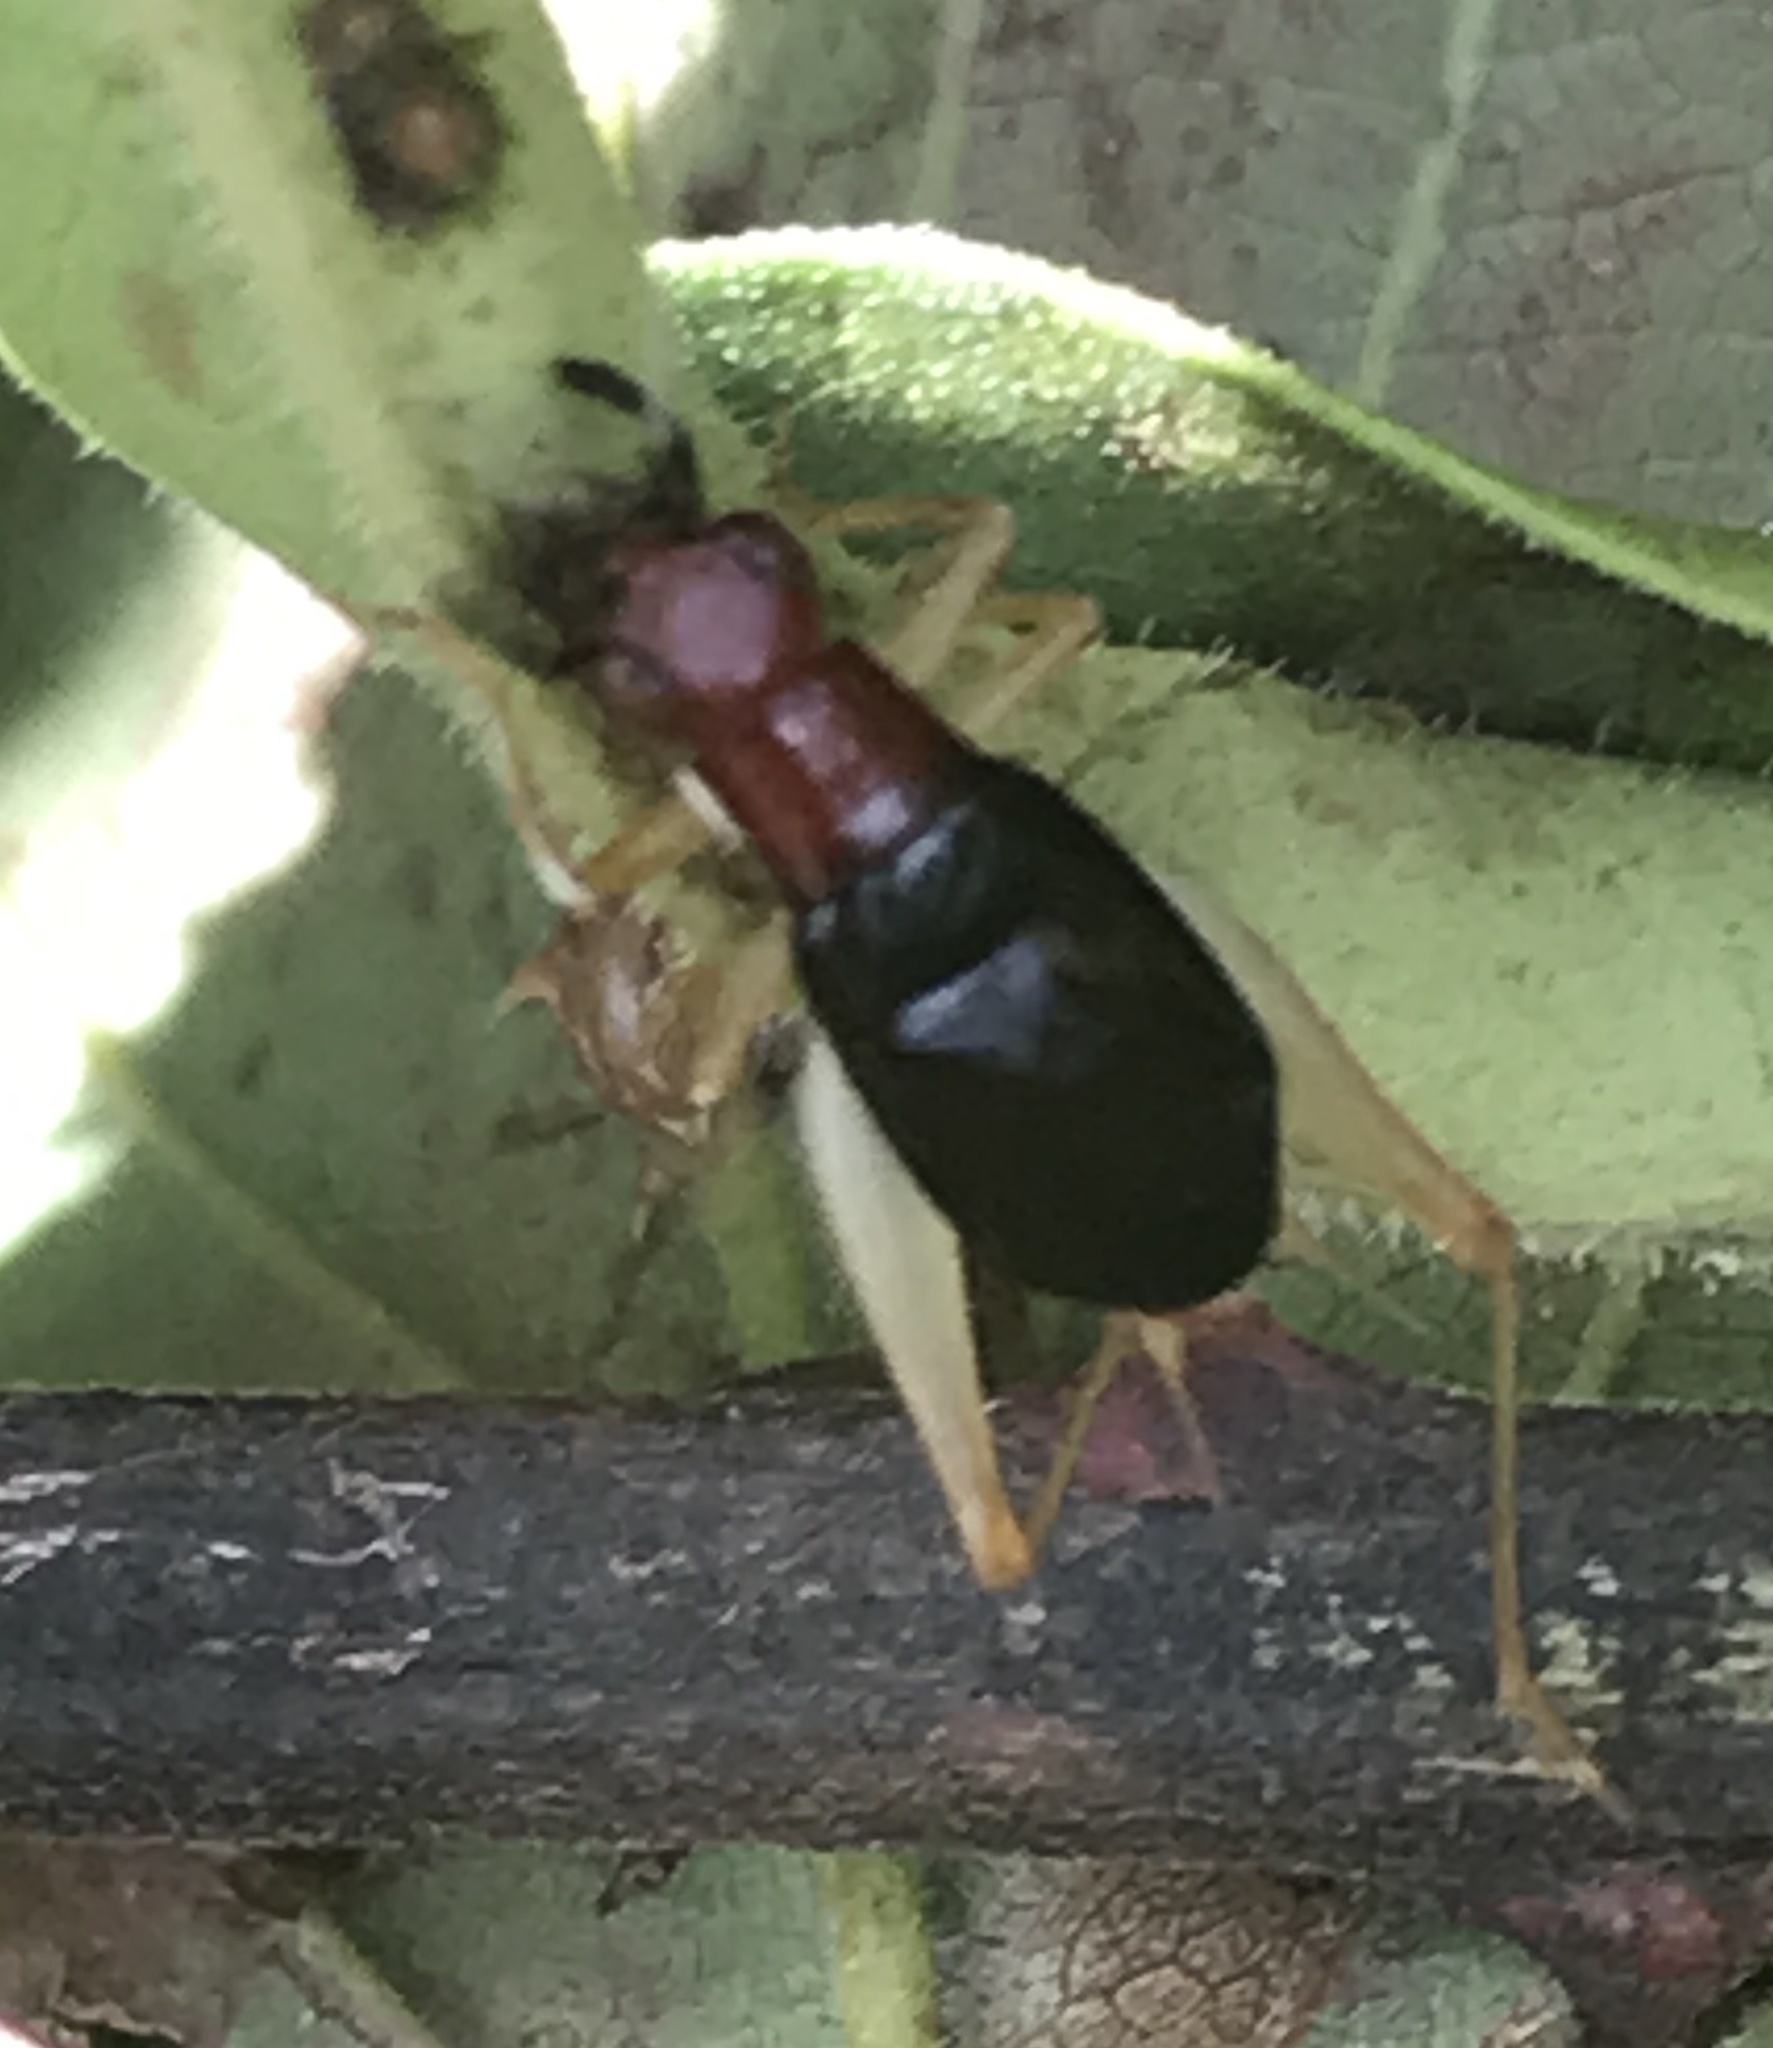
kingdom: Animalia
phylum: Arthropoda
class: Insecta
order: Orthoptera
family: Trigonidiidae
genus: Phyllopalpus
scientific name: Phyllopalpus pulchellus
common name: Handsome trig
